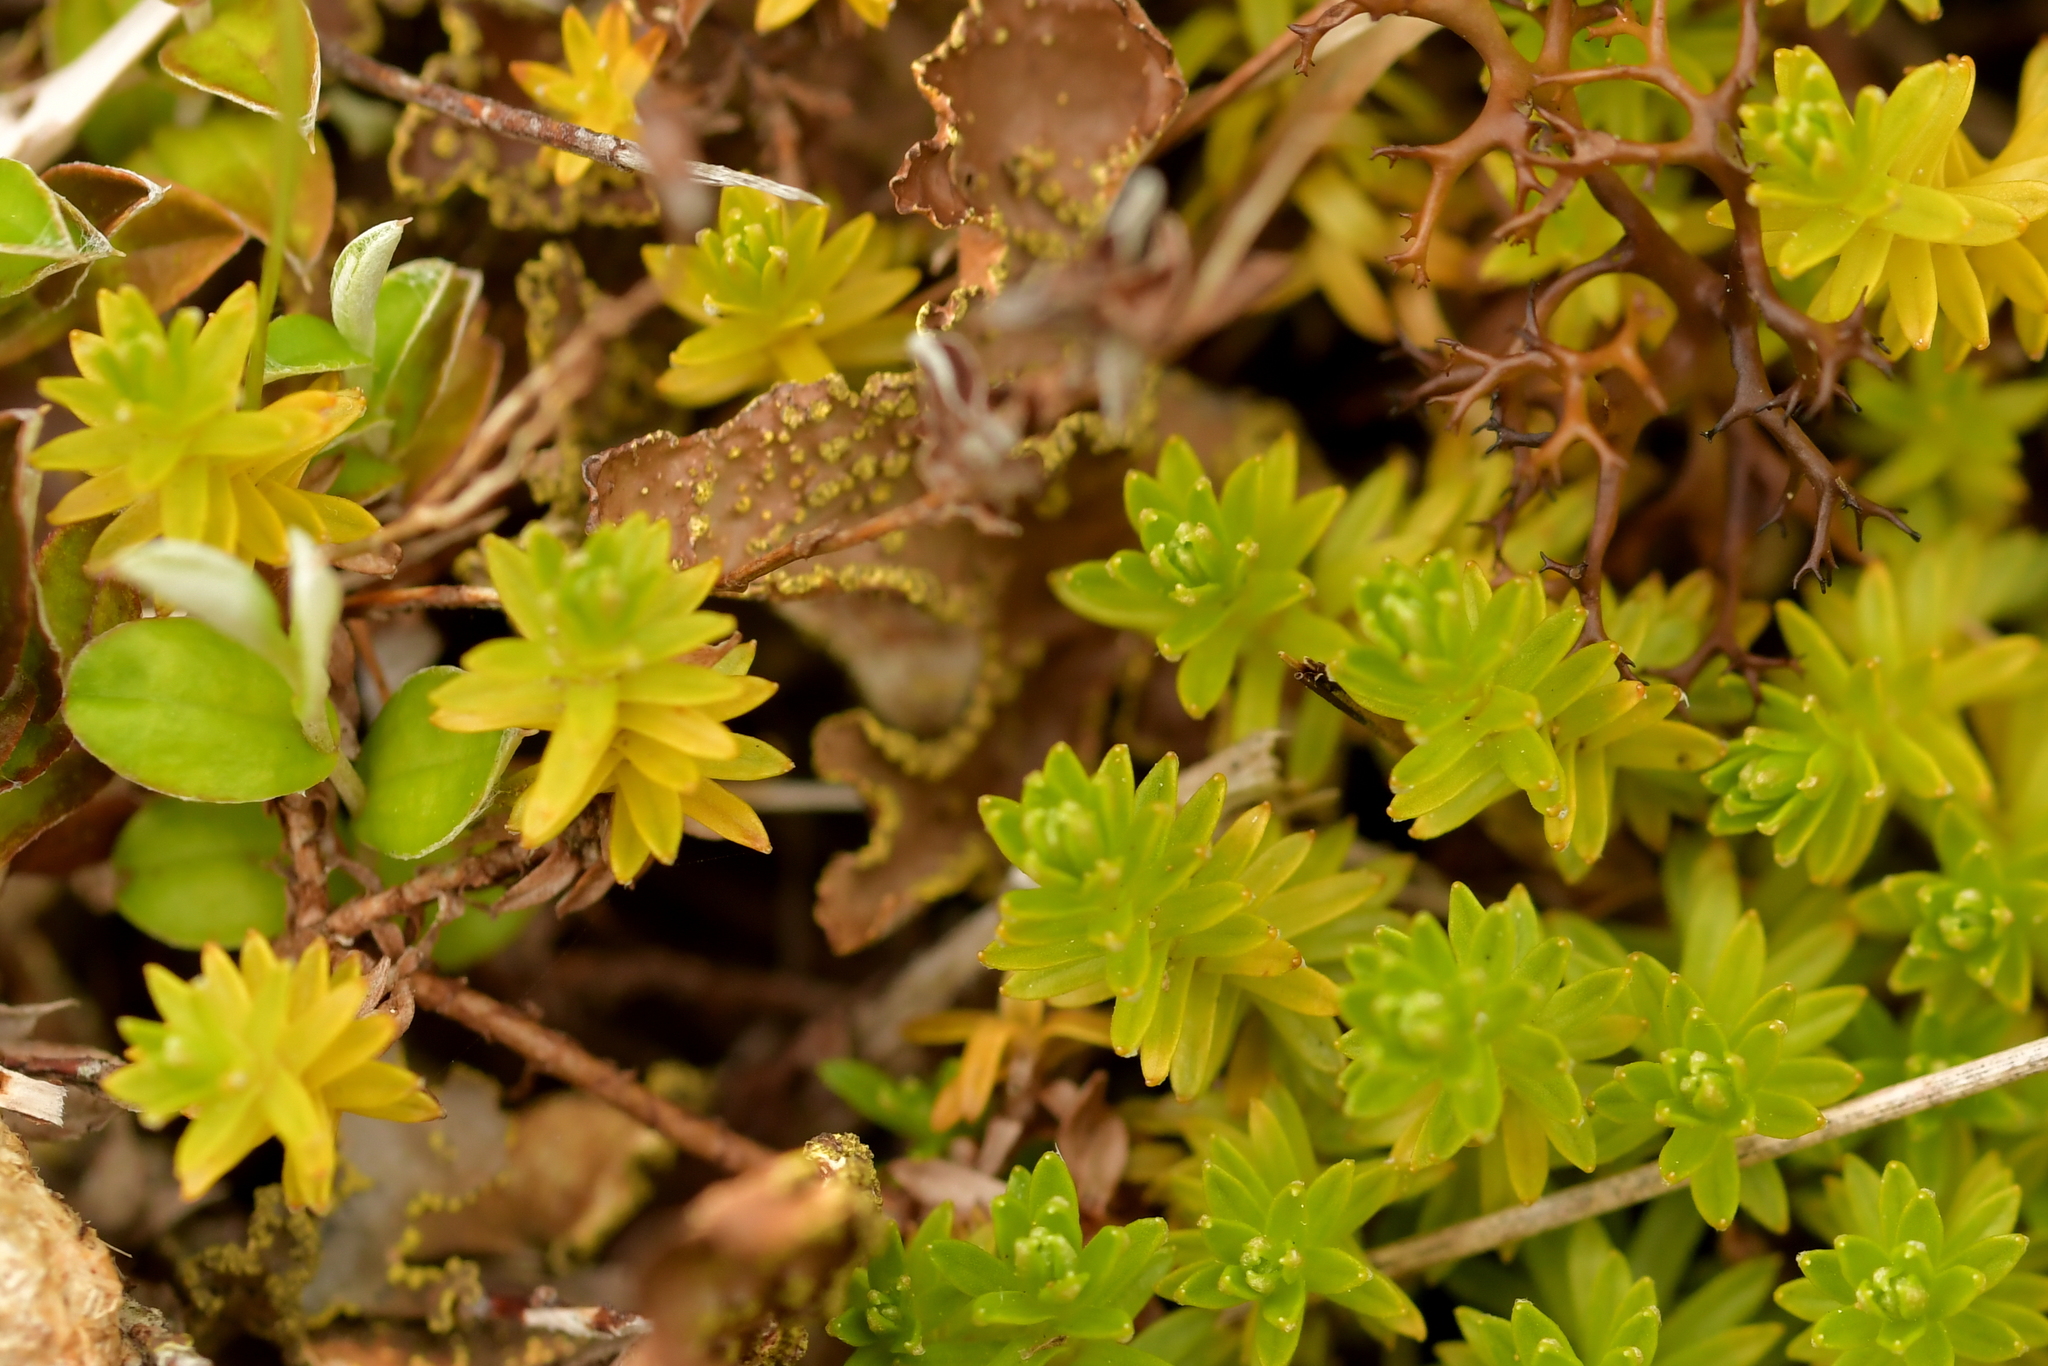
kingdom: Plantae
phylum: Tracheophyta
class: Magnoliopsida
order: Asterales
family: Asteraceae
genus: Raoulia
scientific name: Raoulia glabra
